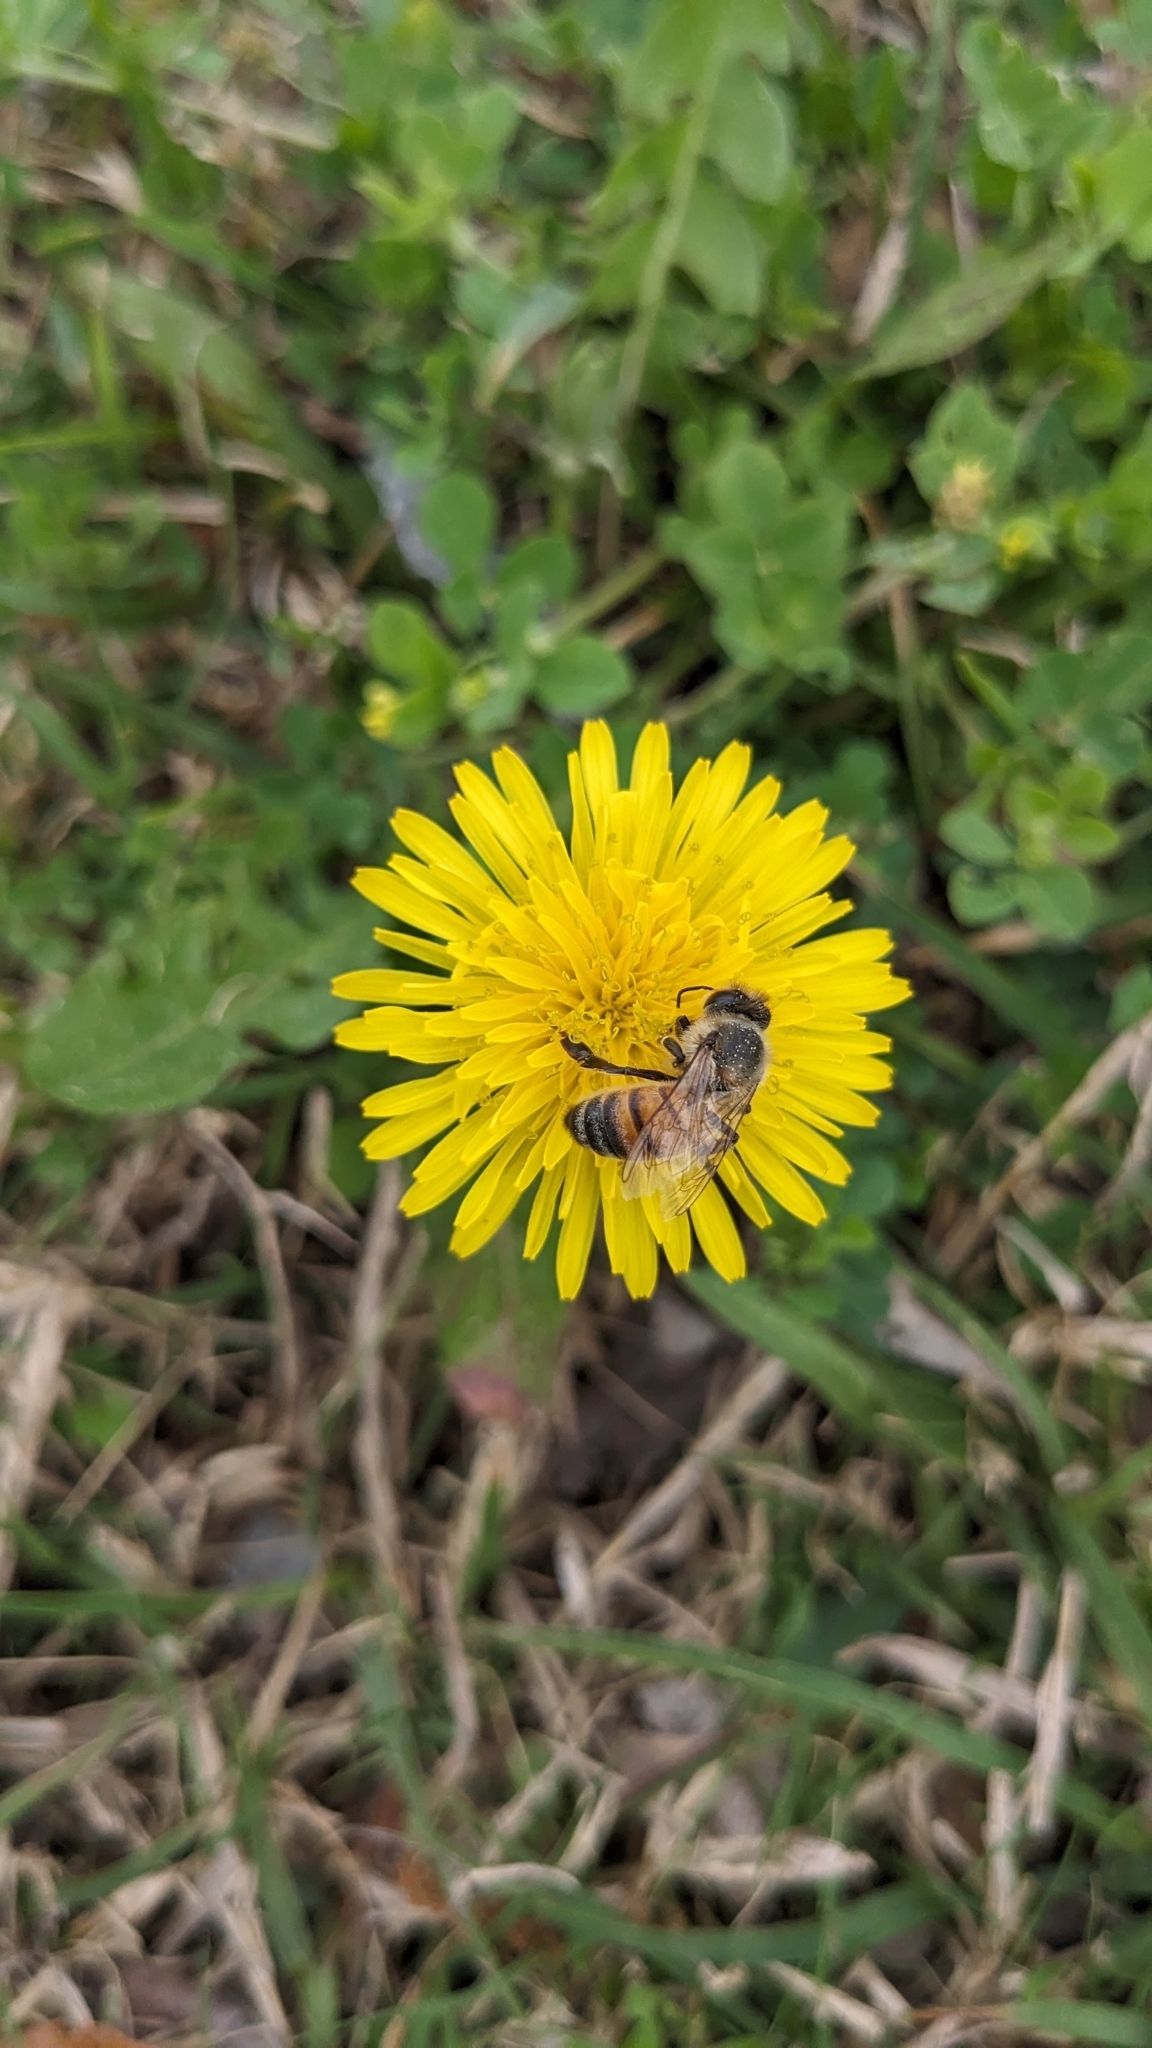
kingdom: Animalia
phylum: Arthropoda
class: Insecta
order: Hymenoptera
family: Apidae
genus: Apis
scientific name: Apis mellifera
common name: Honey bee
